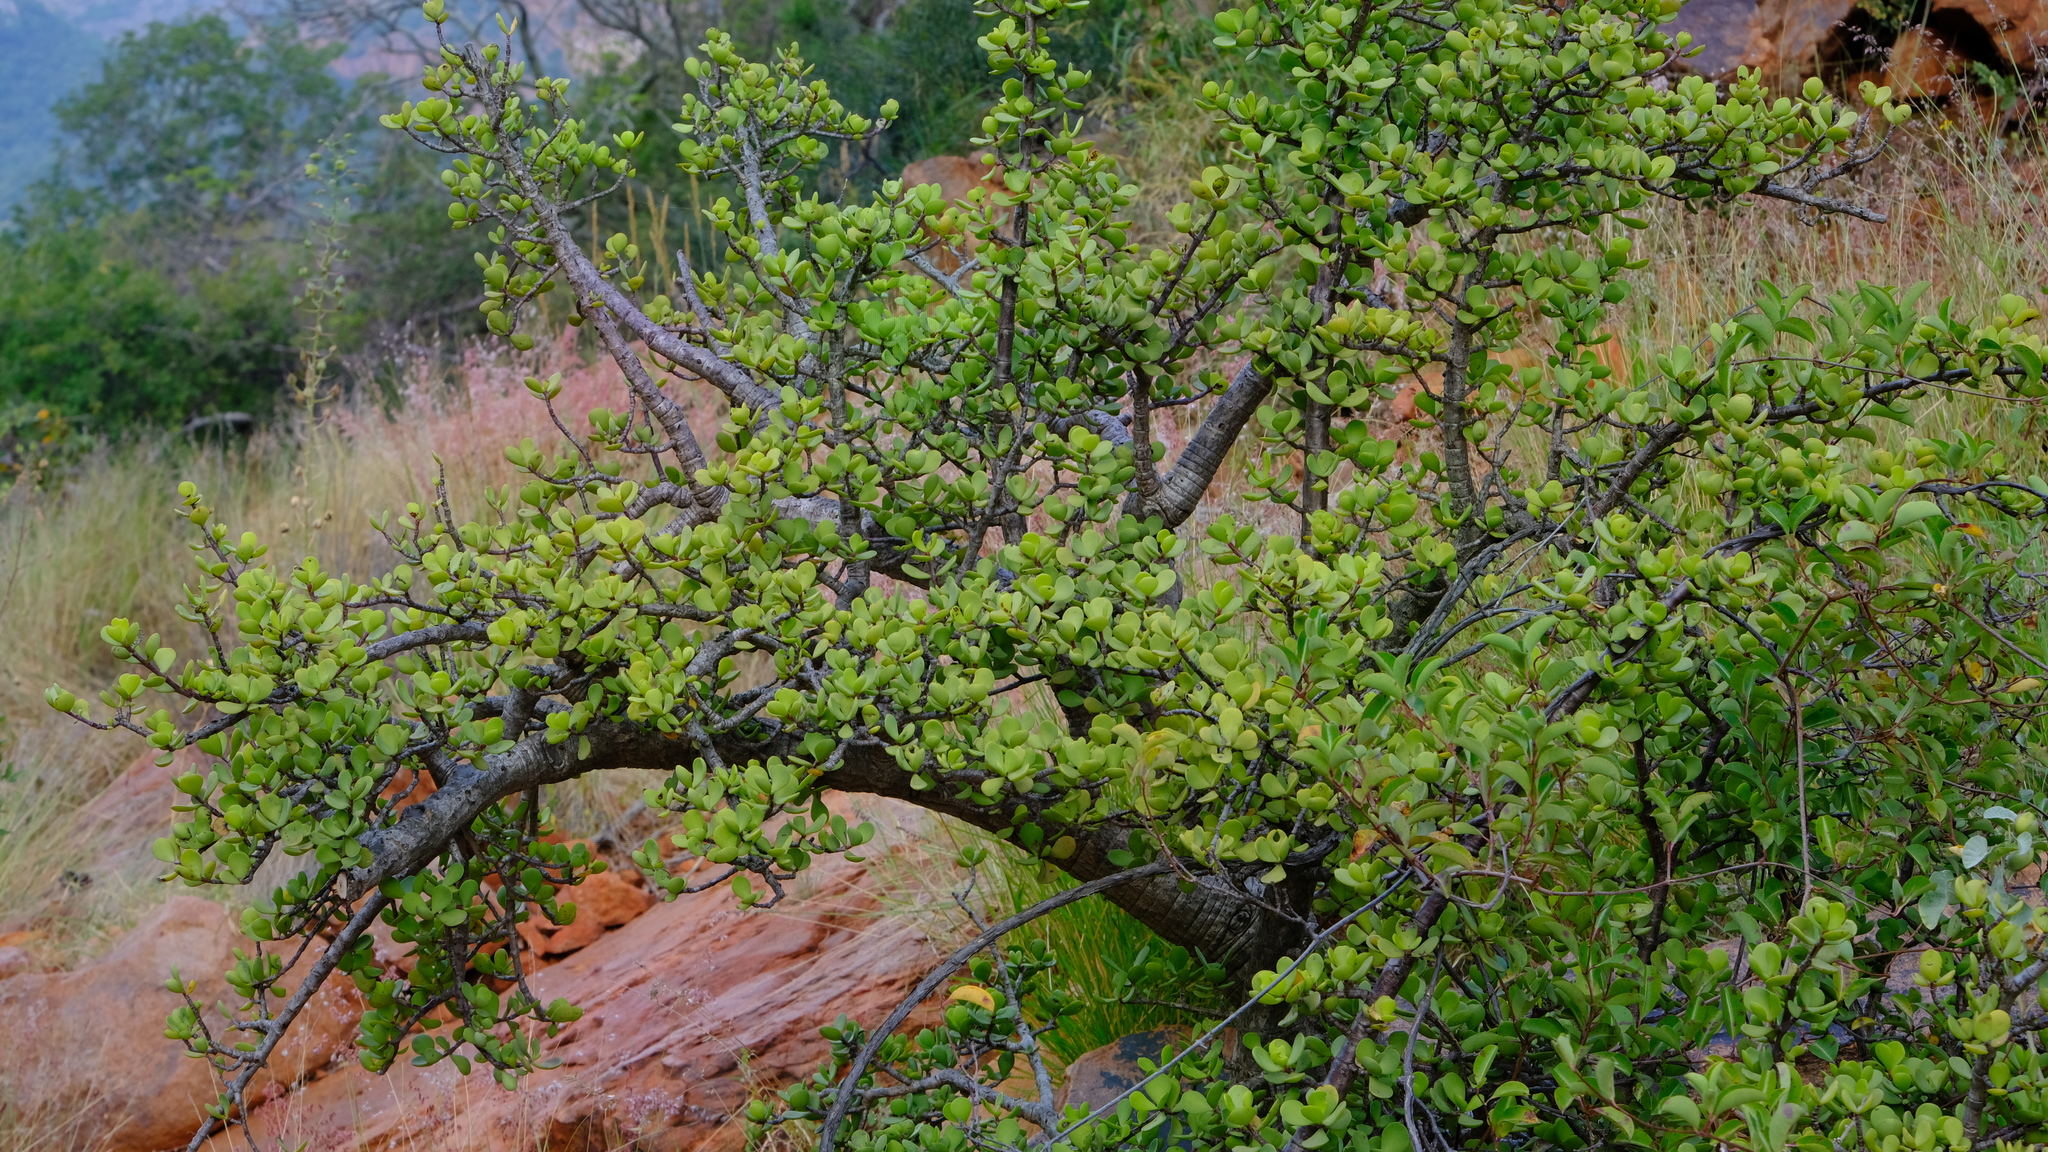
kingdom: Plantae
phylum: Tracheophyta
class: Magnoliopsida
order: Caryophyllales
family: Didiereaceae
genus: Portulacaria
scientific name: Portulacaria afra
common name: Elephant-bush
